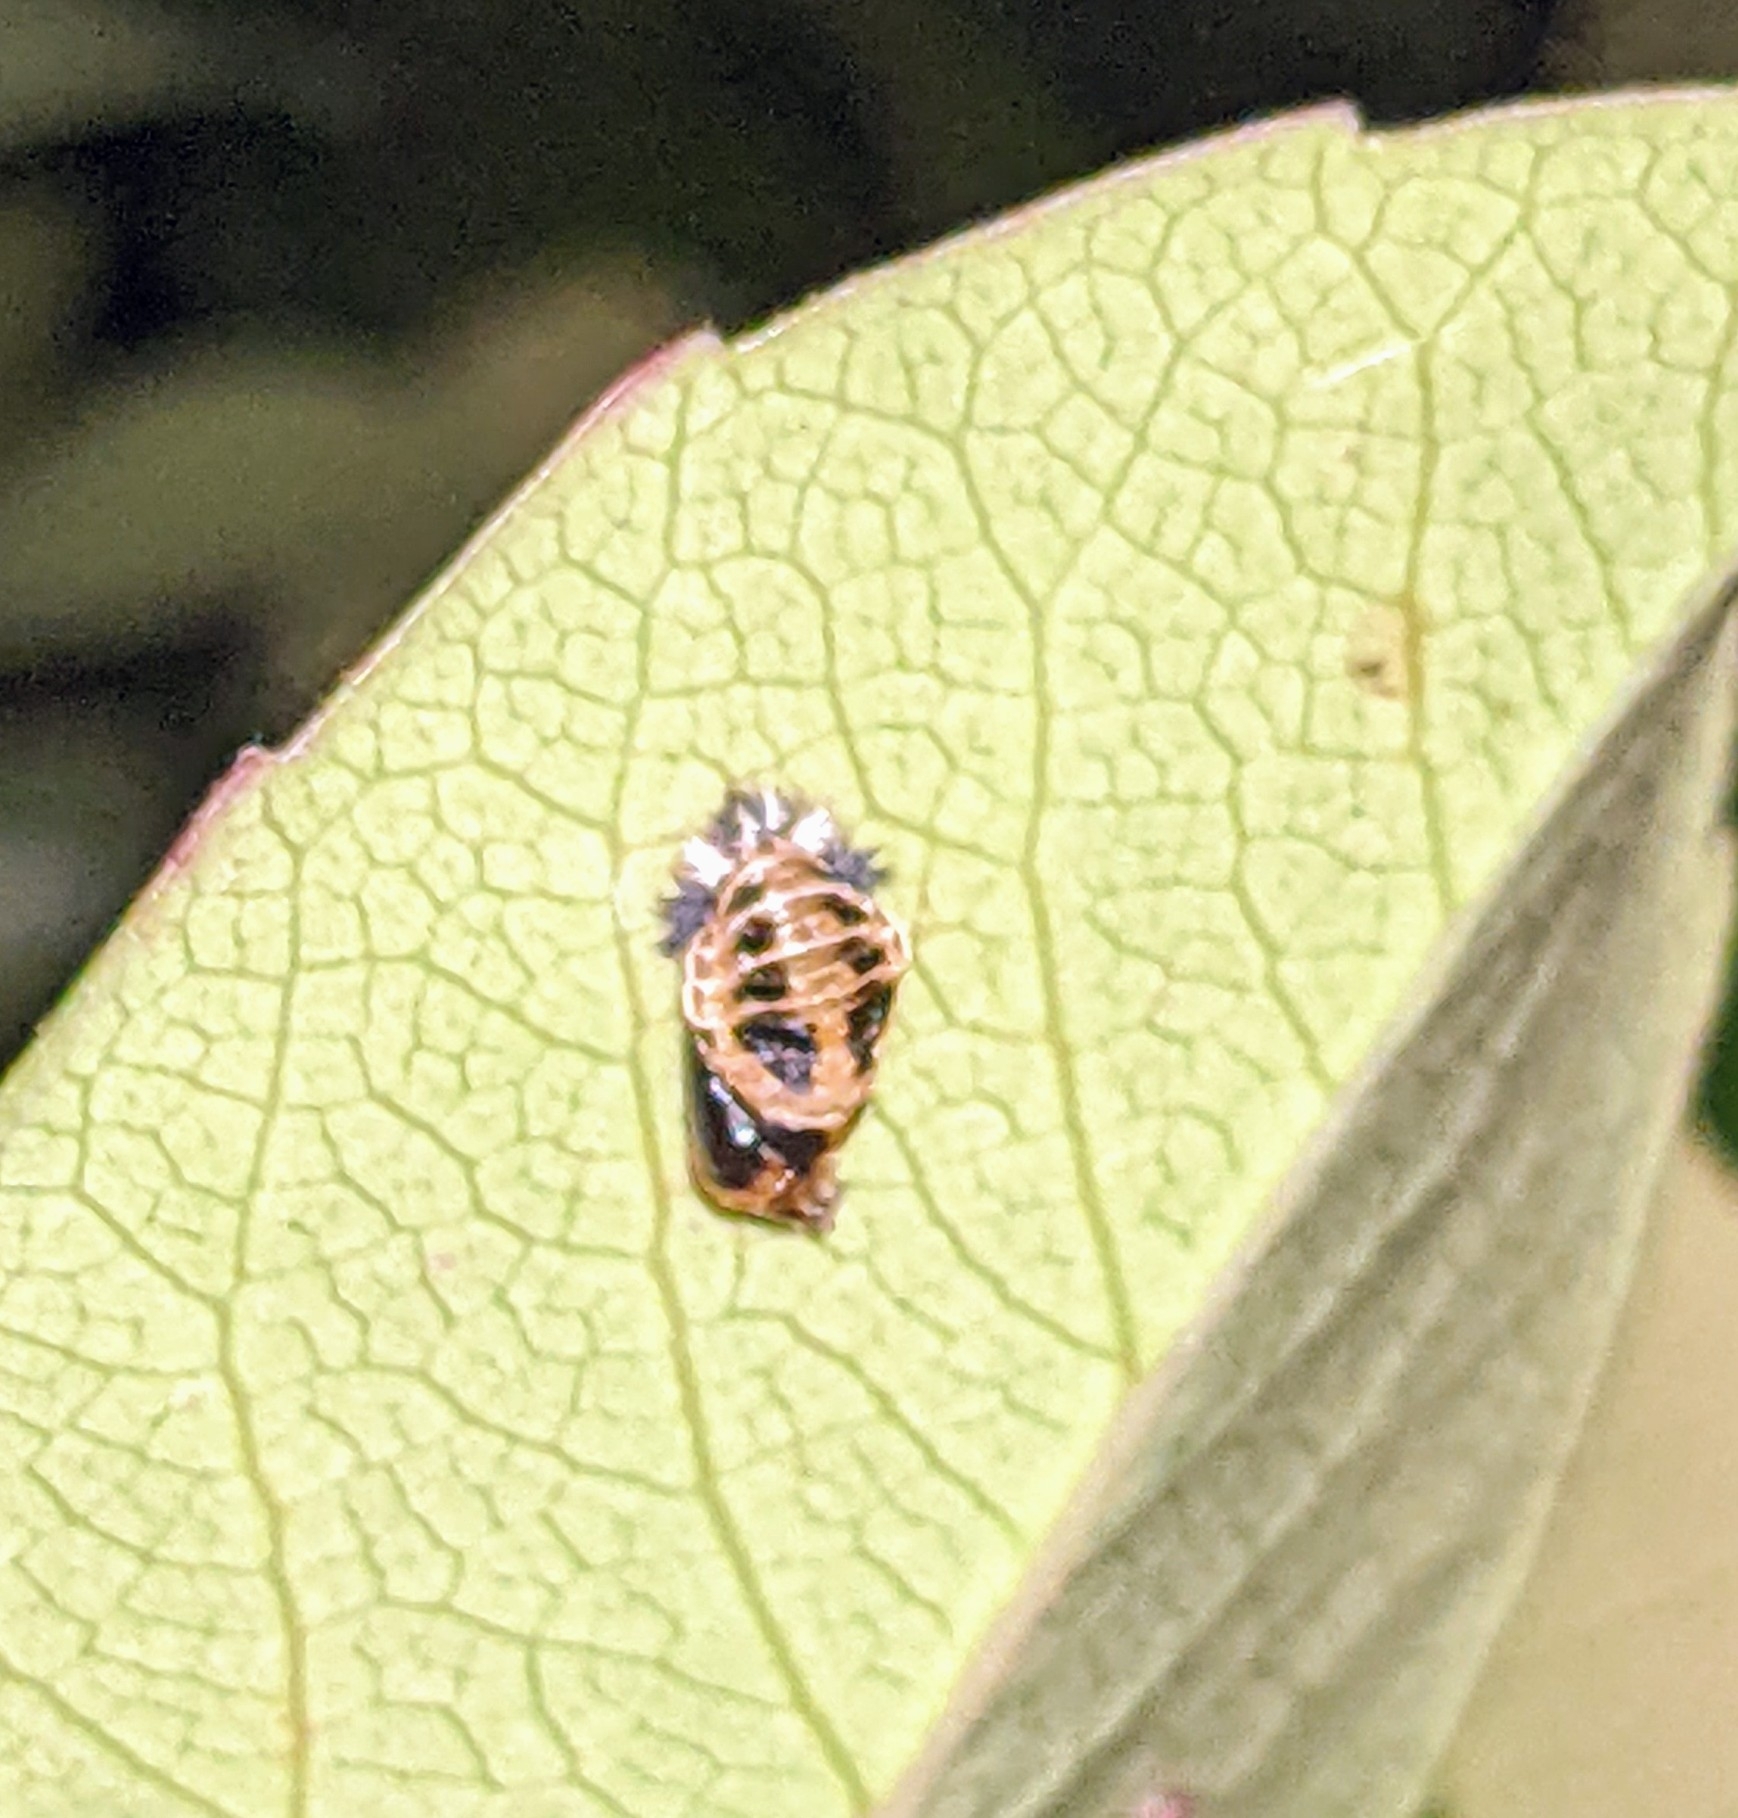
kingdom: Animalia
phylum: Arthropoda
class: Insecta
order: Coleoptera
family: Coccinellidae
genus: Harmonia
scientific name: Harmonia axyridis
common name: Harlequin ladybird
